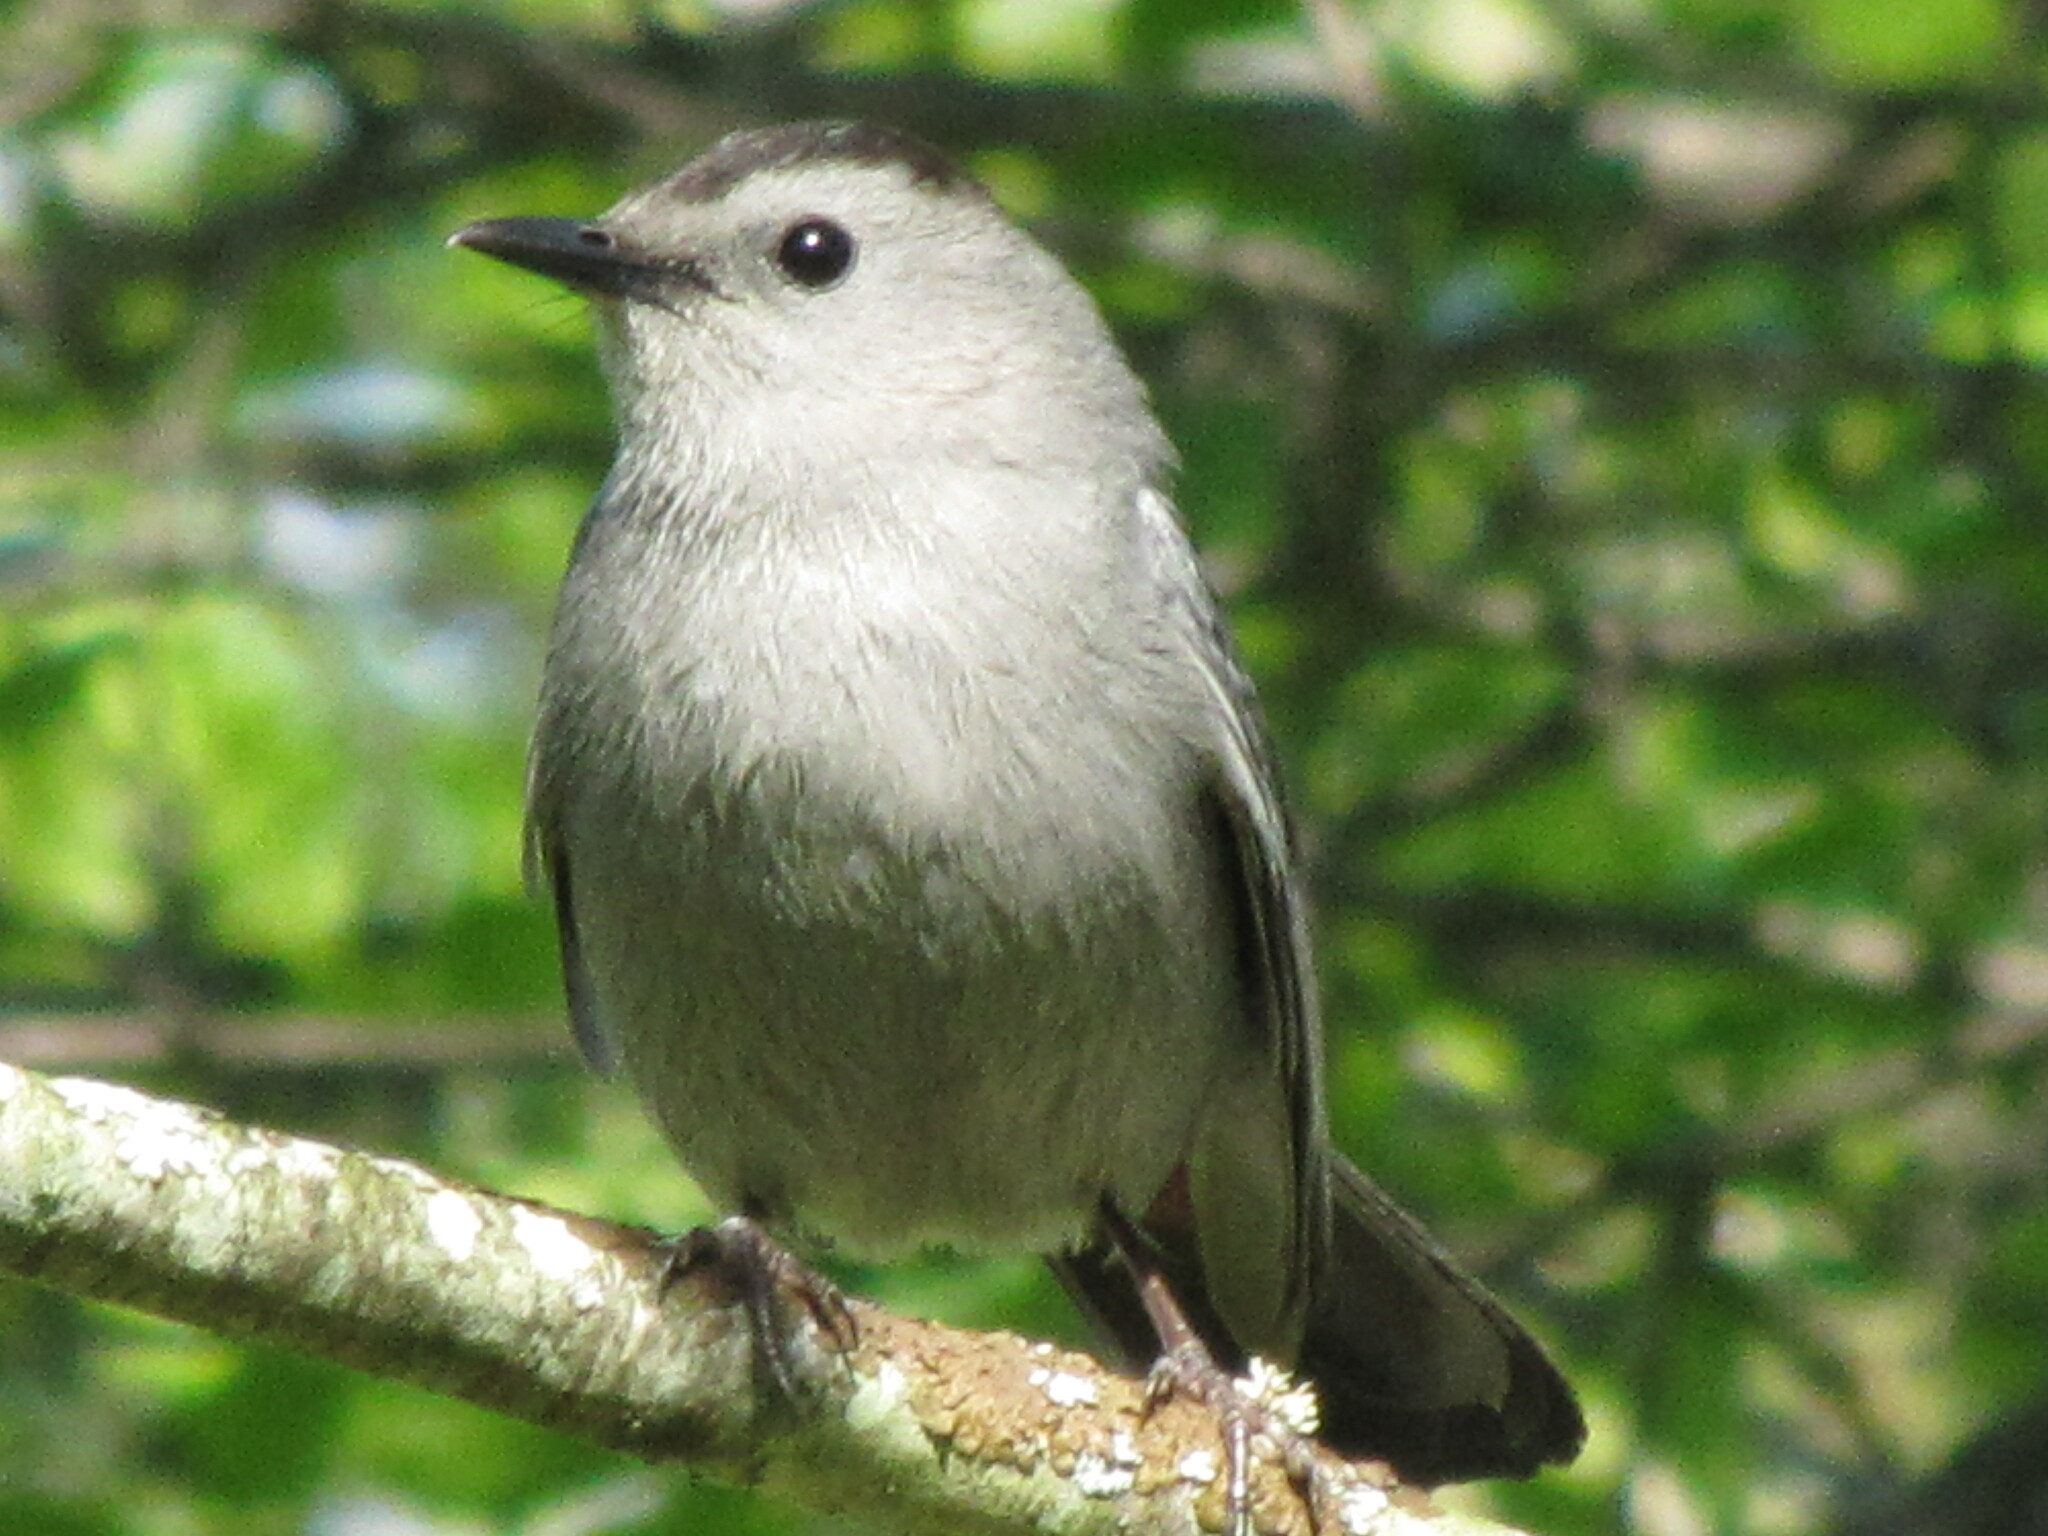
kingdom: Animalia
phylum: Chordata
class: Aves
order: Passeriformes
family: Mimidae
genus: Dumetella
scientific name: Dumetella carolinensis
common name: Gray catbird
